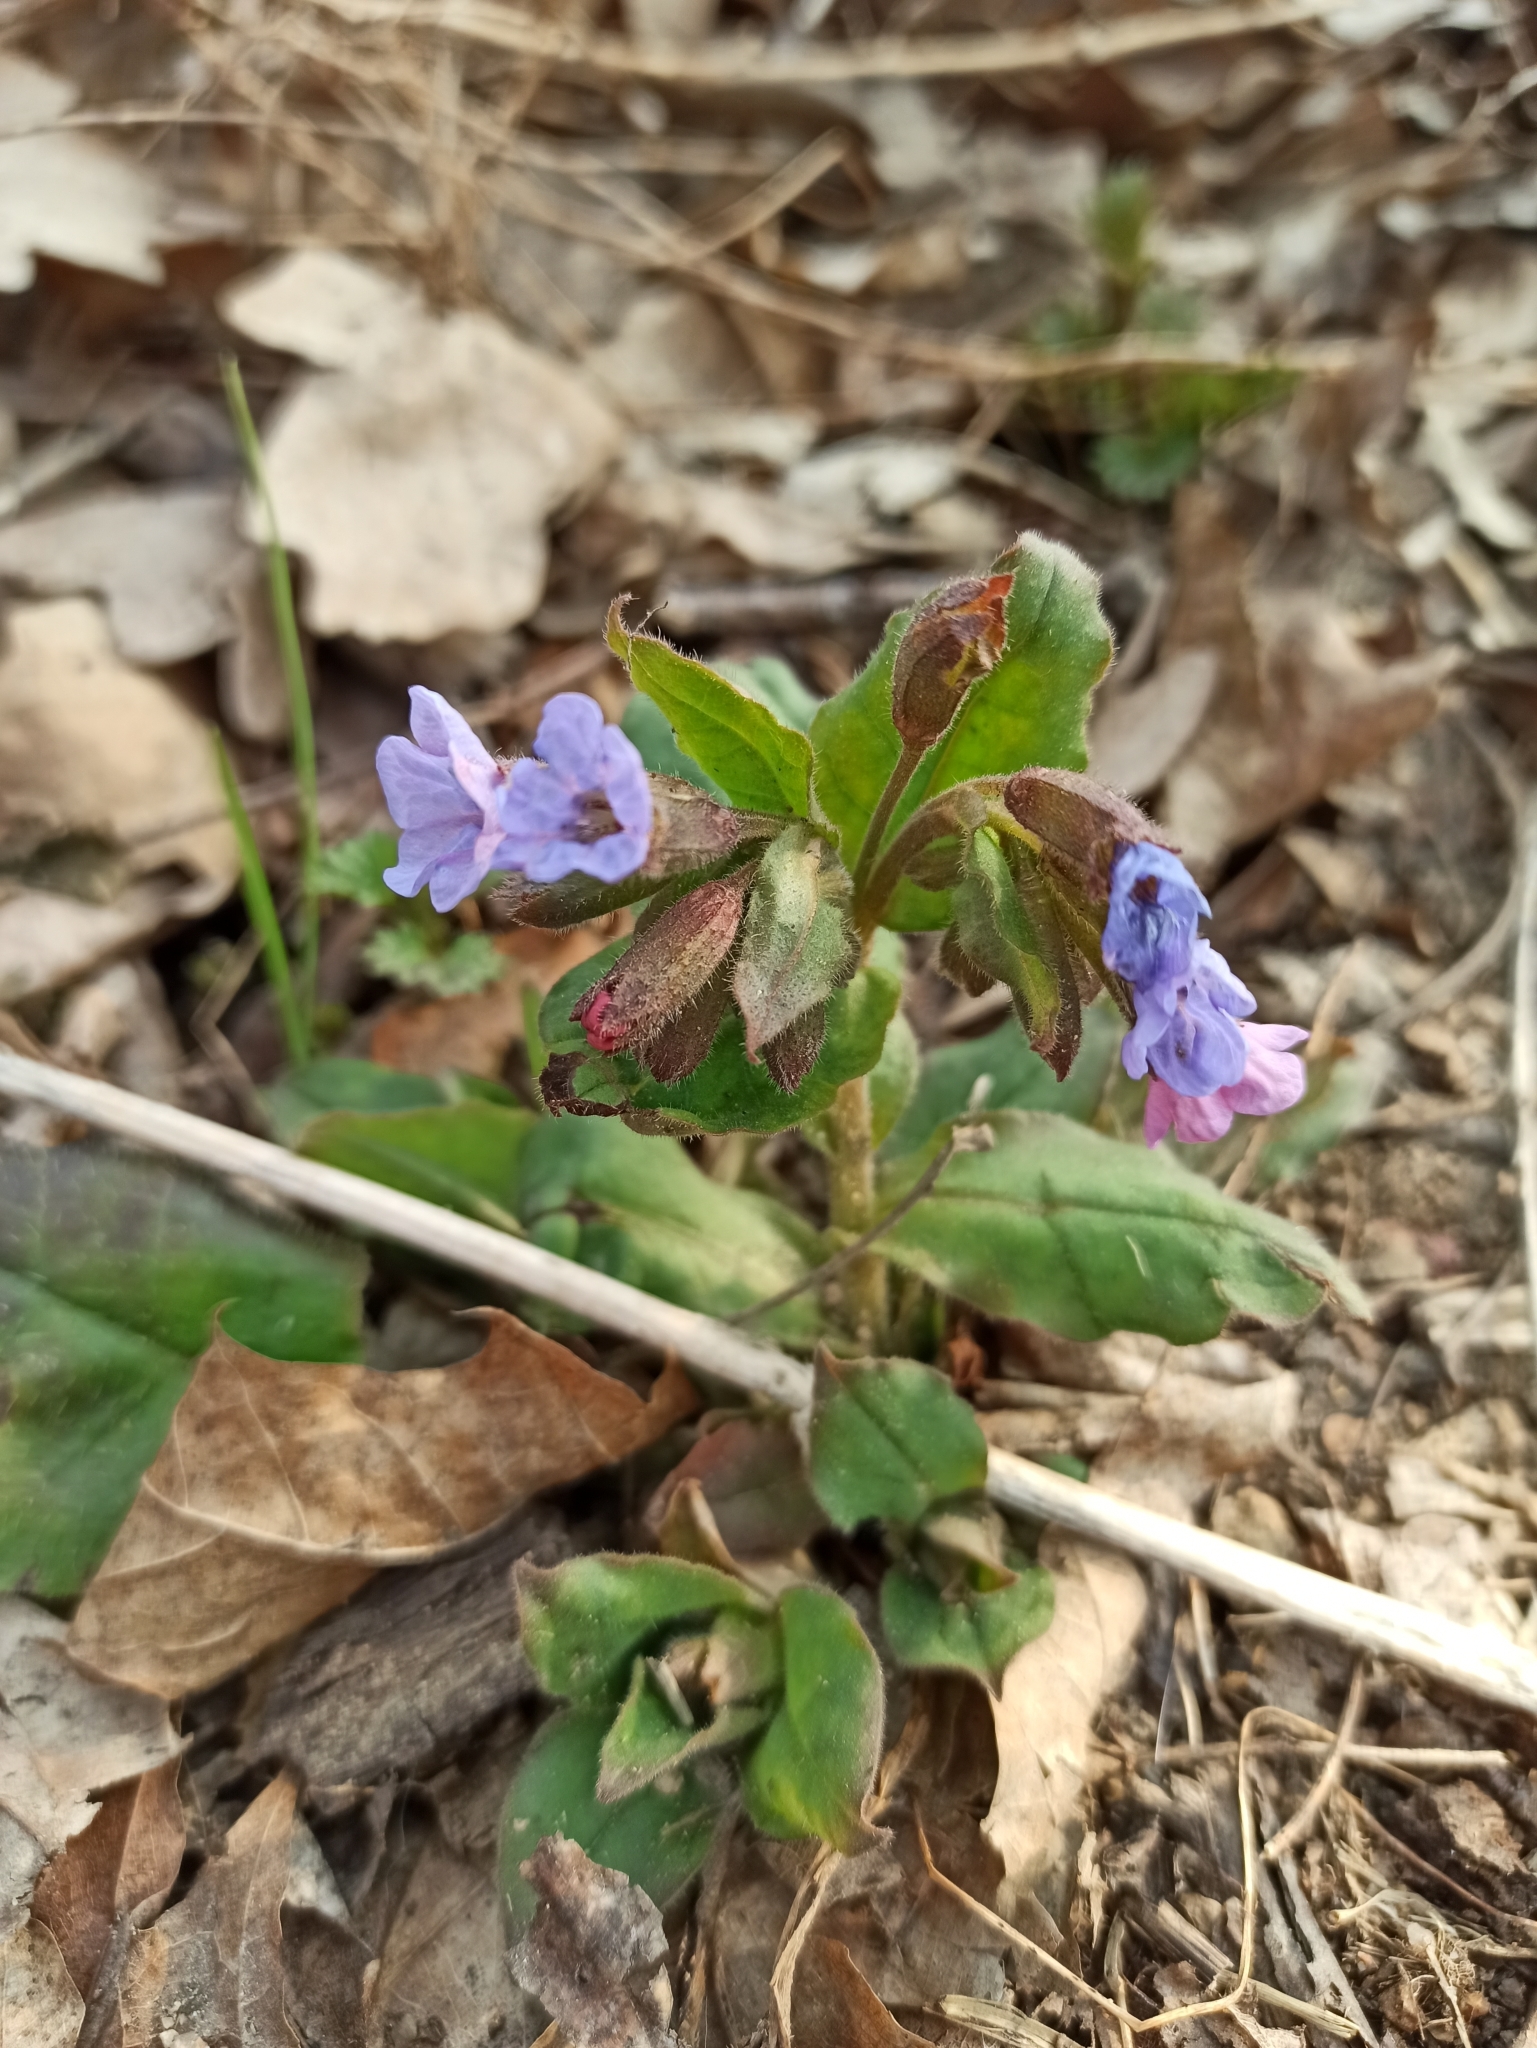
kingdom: Plantae
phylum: Tracheophyta
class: Magnoliopsida
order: Boraginales
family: Boraginaceae
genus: Pulmonaria
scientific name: Pulmonaria obscura
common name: Suffolk lungwort
